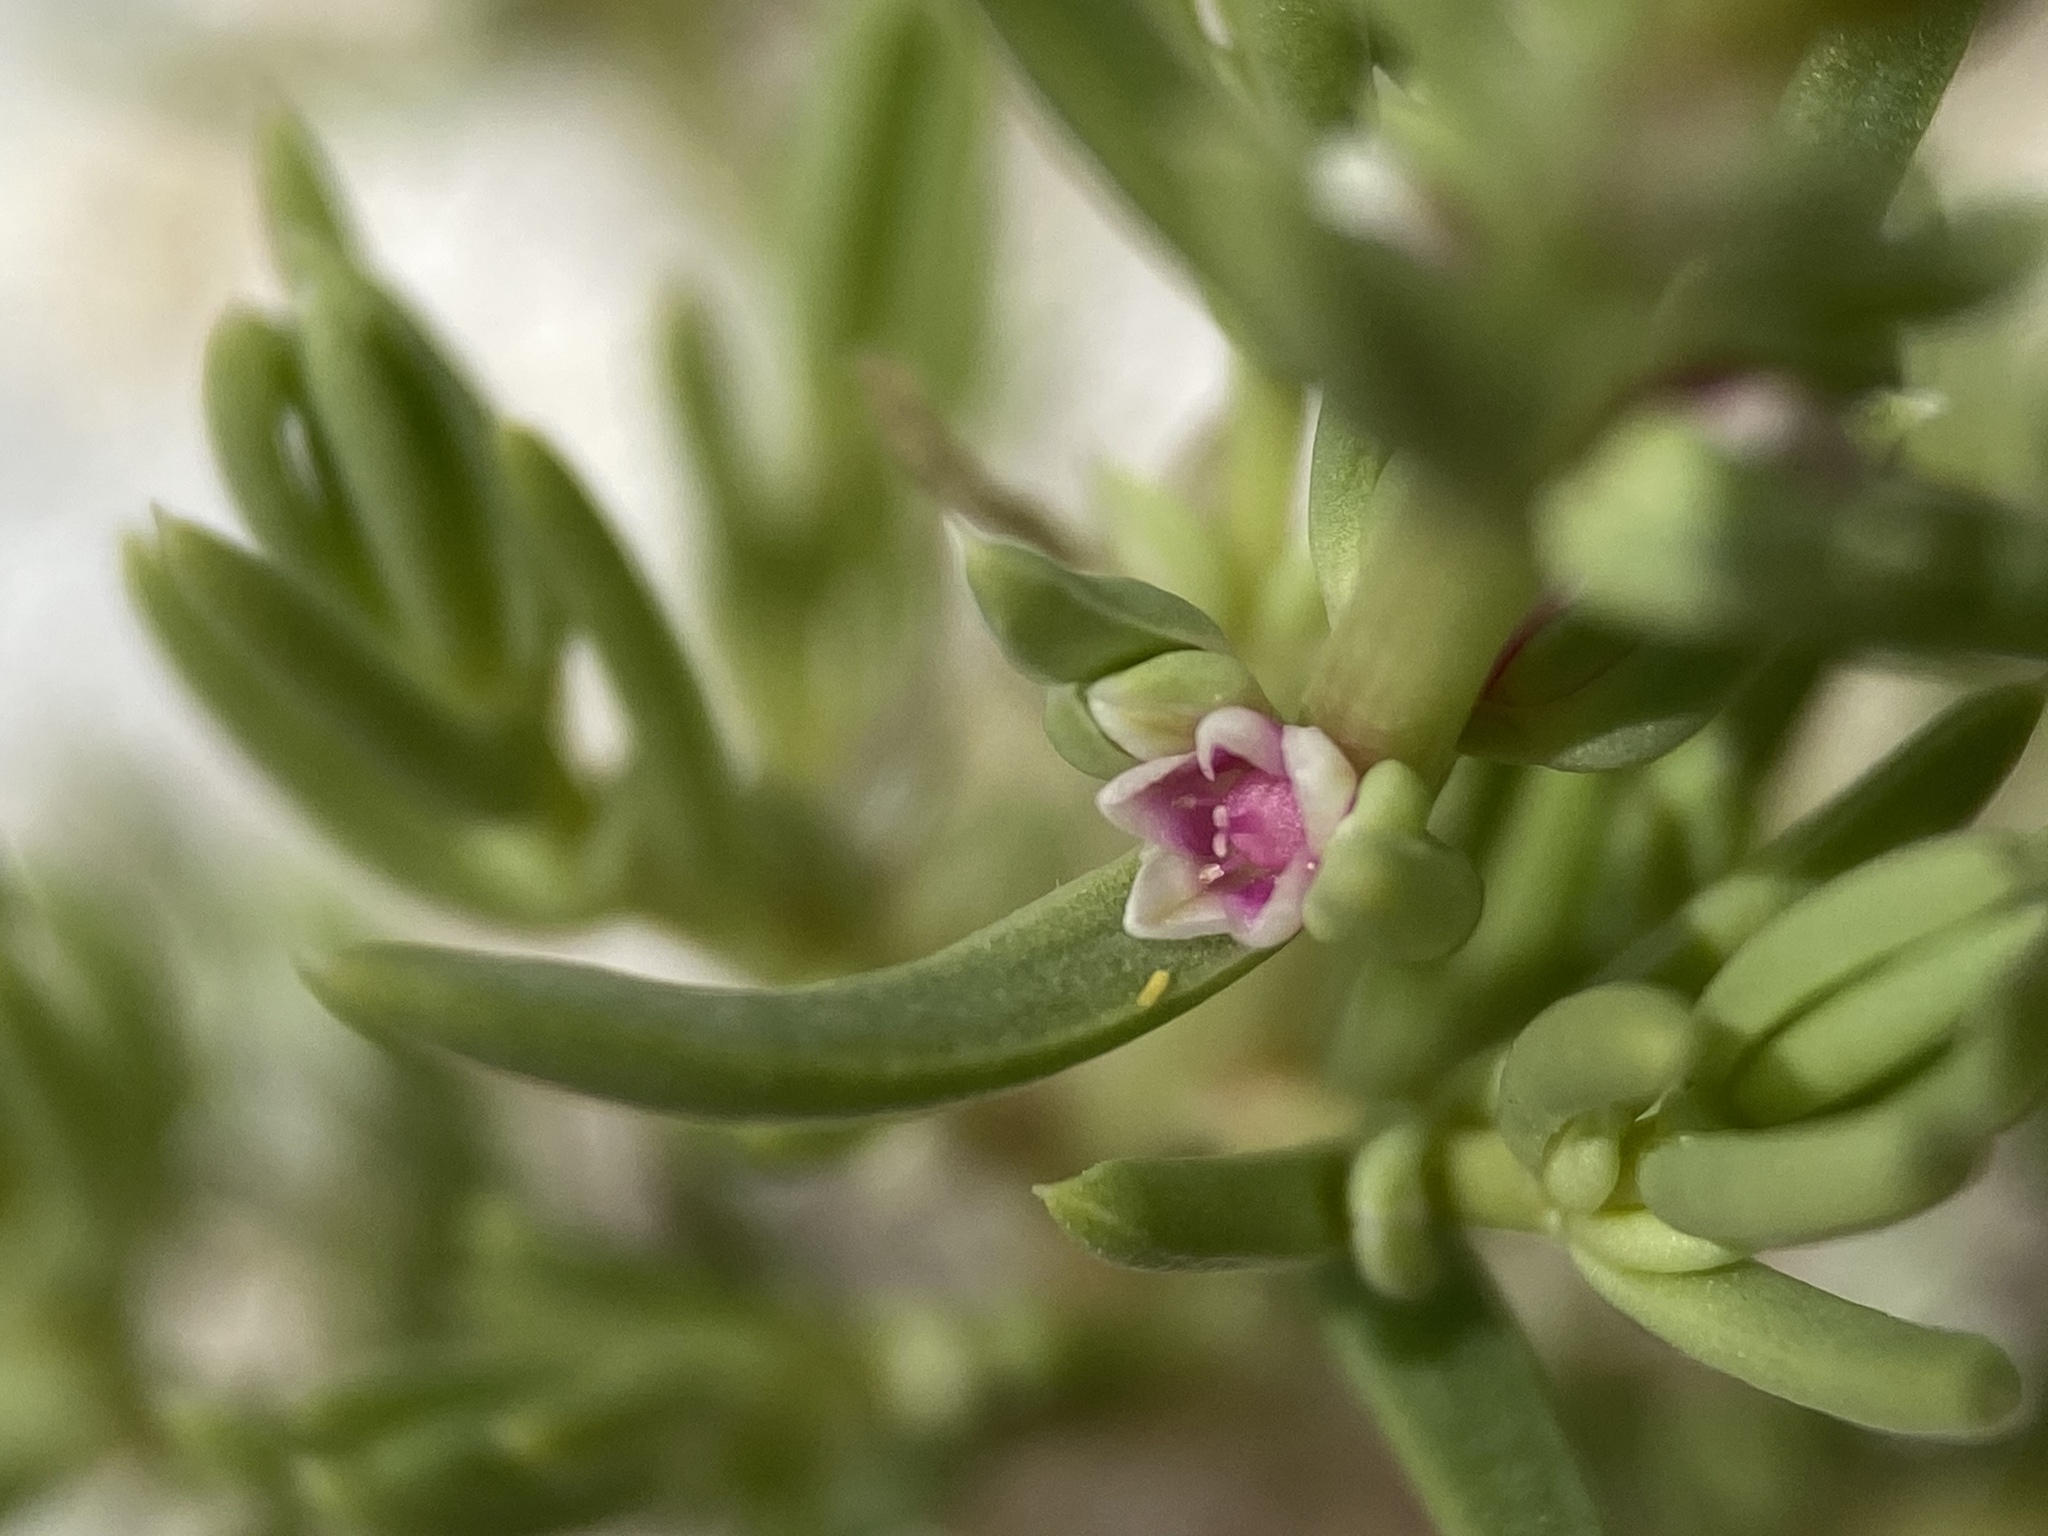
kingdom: Plantae
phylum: Tracheophyta
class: Magnoliopsida
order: Caryophyllales
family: Amaranthaceae
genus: Nitrophila
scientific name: Nitrophila occidentalis
